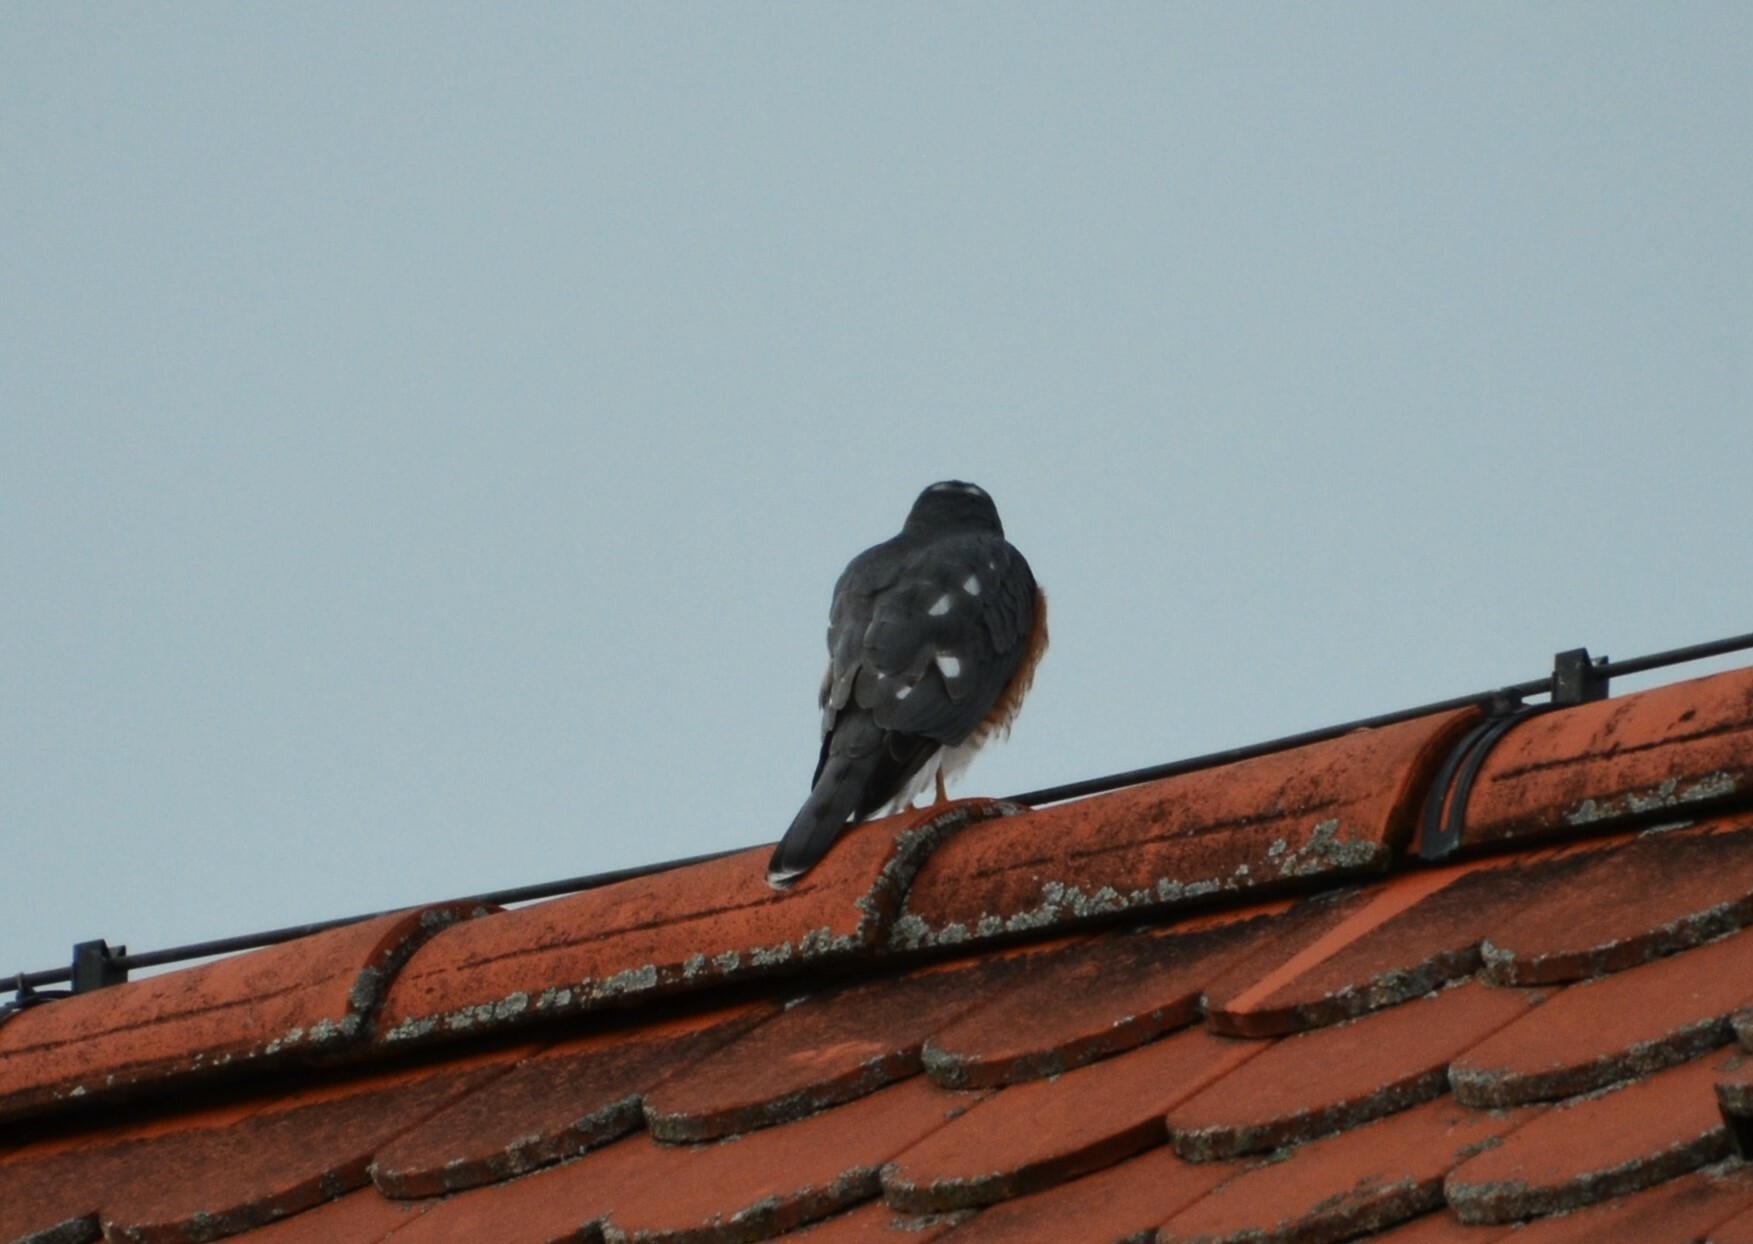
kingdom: Animalia
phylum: Chordata
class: Aves
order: Accipitriformes
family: Accipitridae
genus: Accipiter
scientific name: Accipiter nisus
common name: Eurasian sparrowhawk
